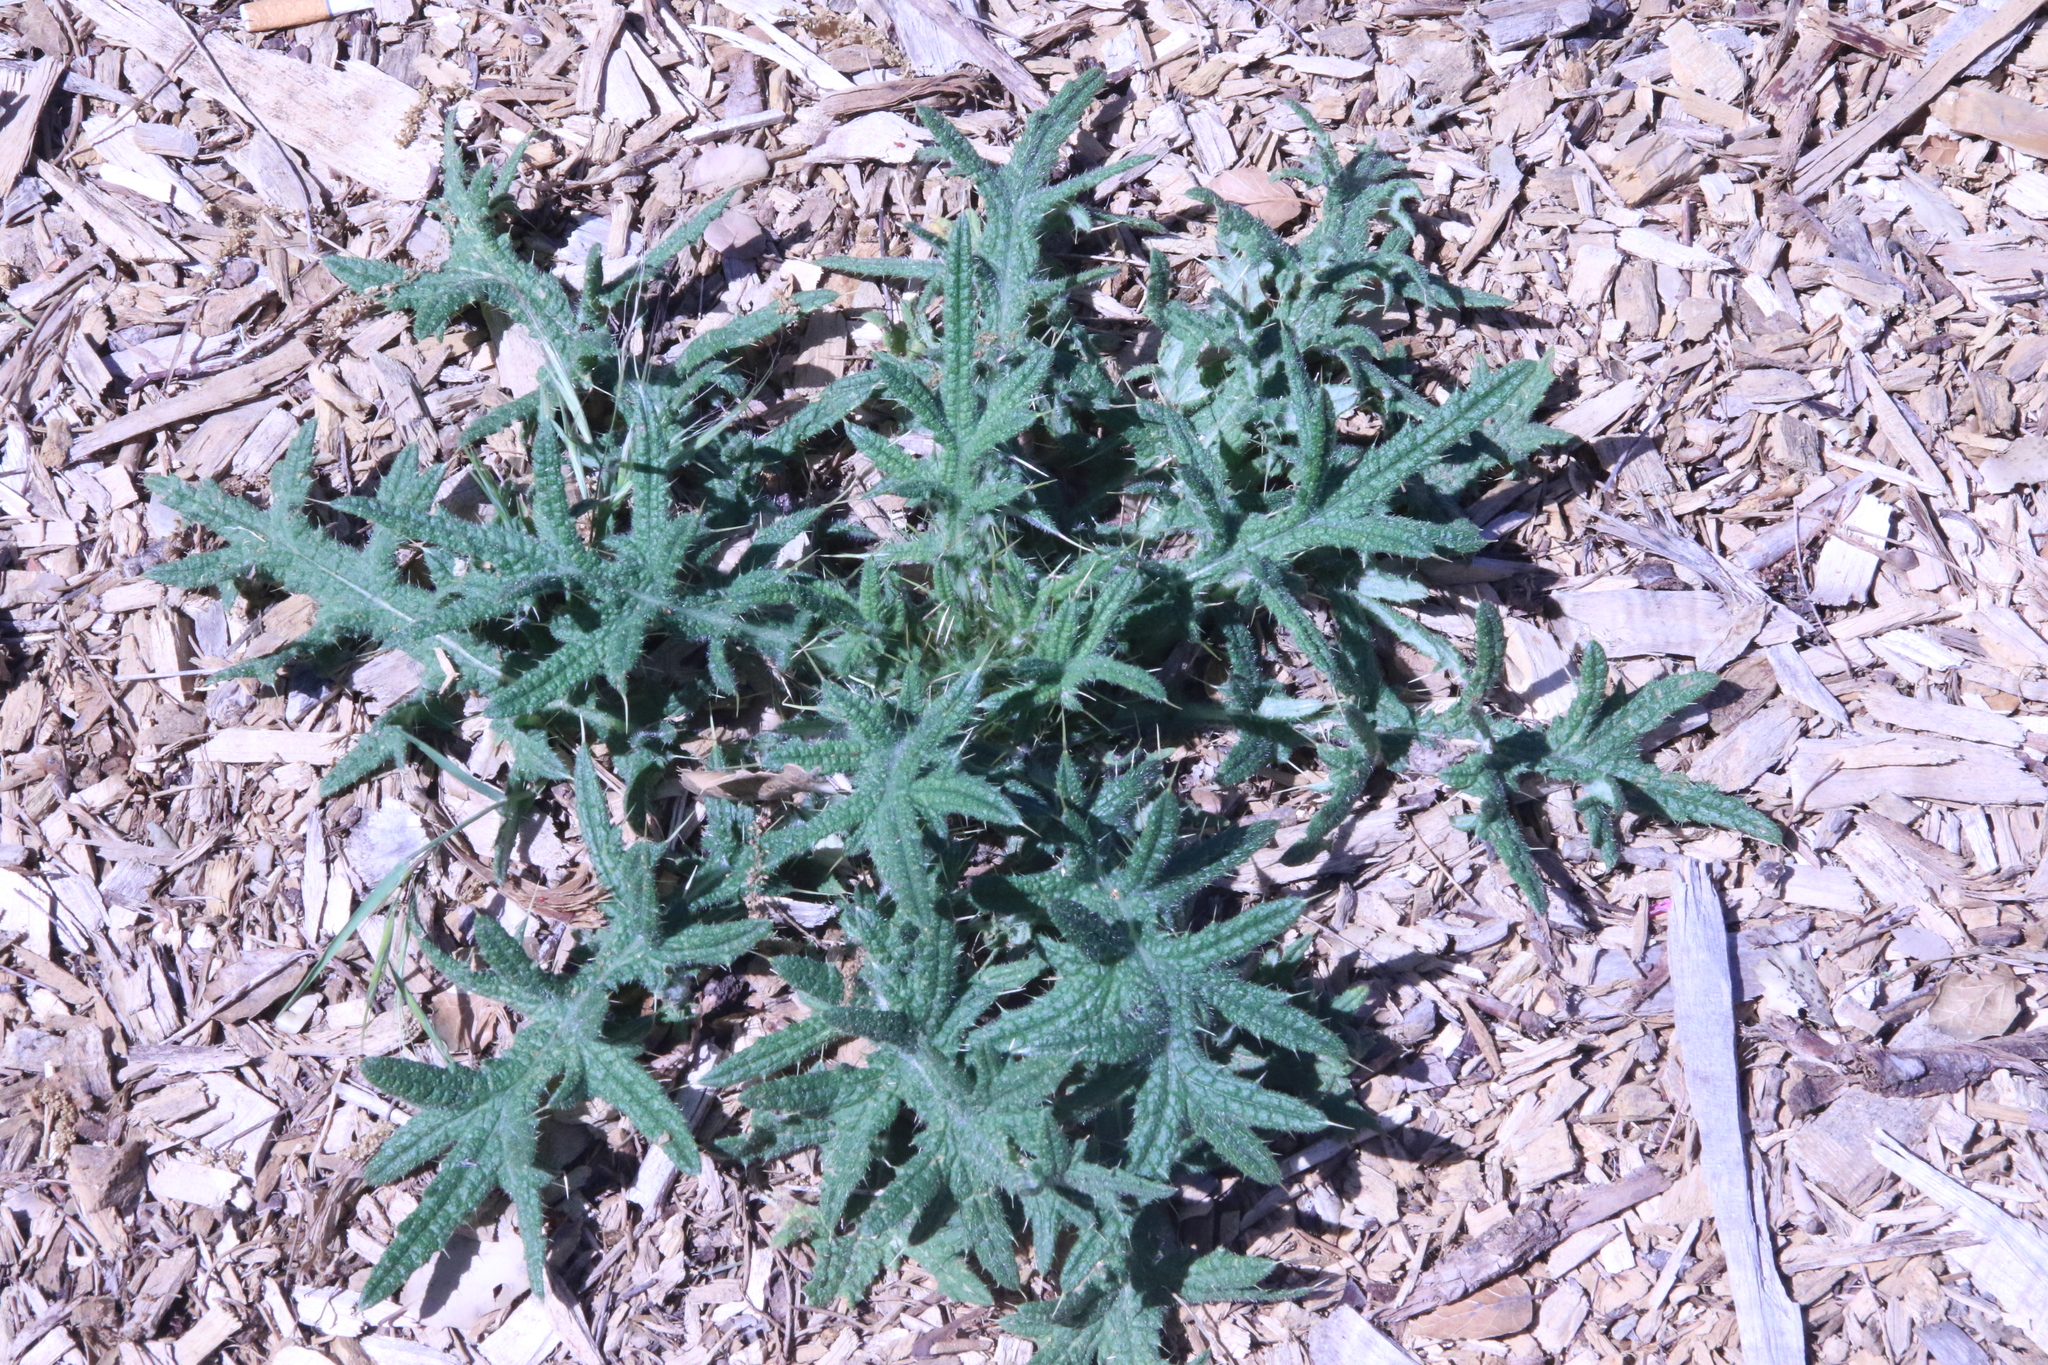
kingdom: Plantae
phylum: Tracheophyta
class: Magnoliopsida
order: Asterales
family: Asteraceae
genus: Cirsium
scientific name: Cirsium vulgare
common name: Bull thistle
